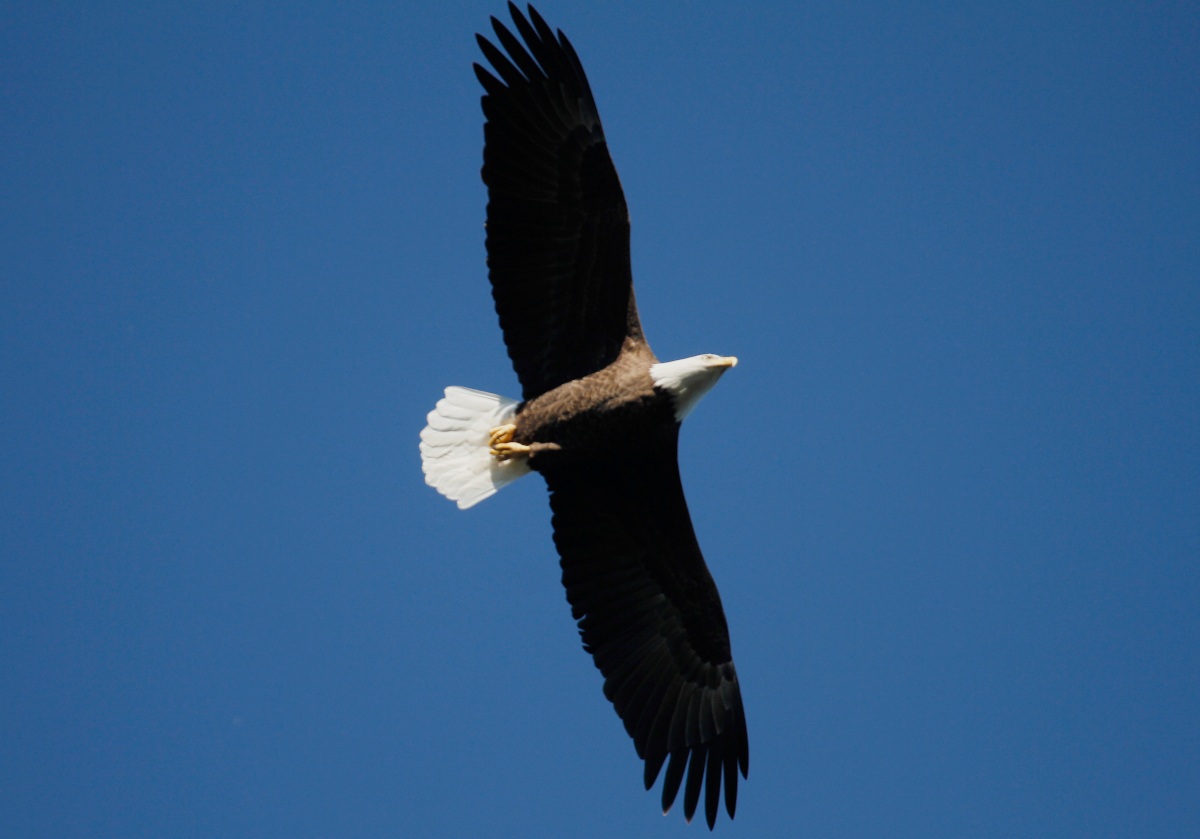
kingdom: Animalia
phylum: Chordata
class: Aves
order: Accipitriformes
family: Accipitridae
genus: Haliaeetus
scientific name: Haliaeetus leucocephalus
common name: Bald eagle
